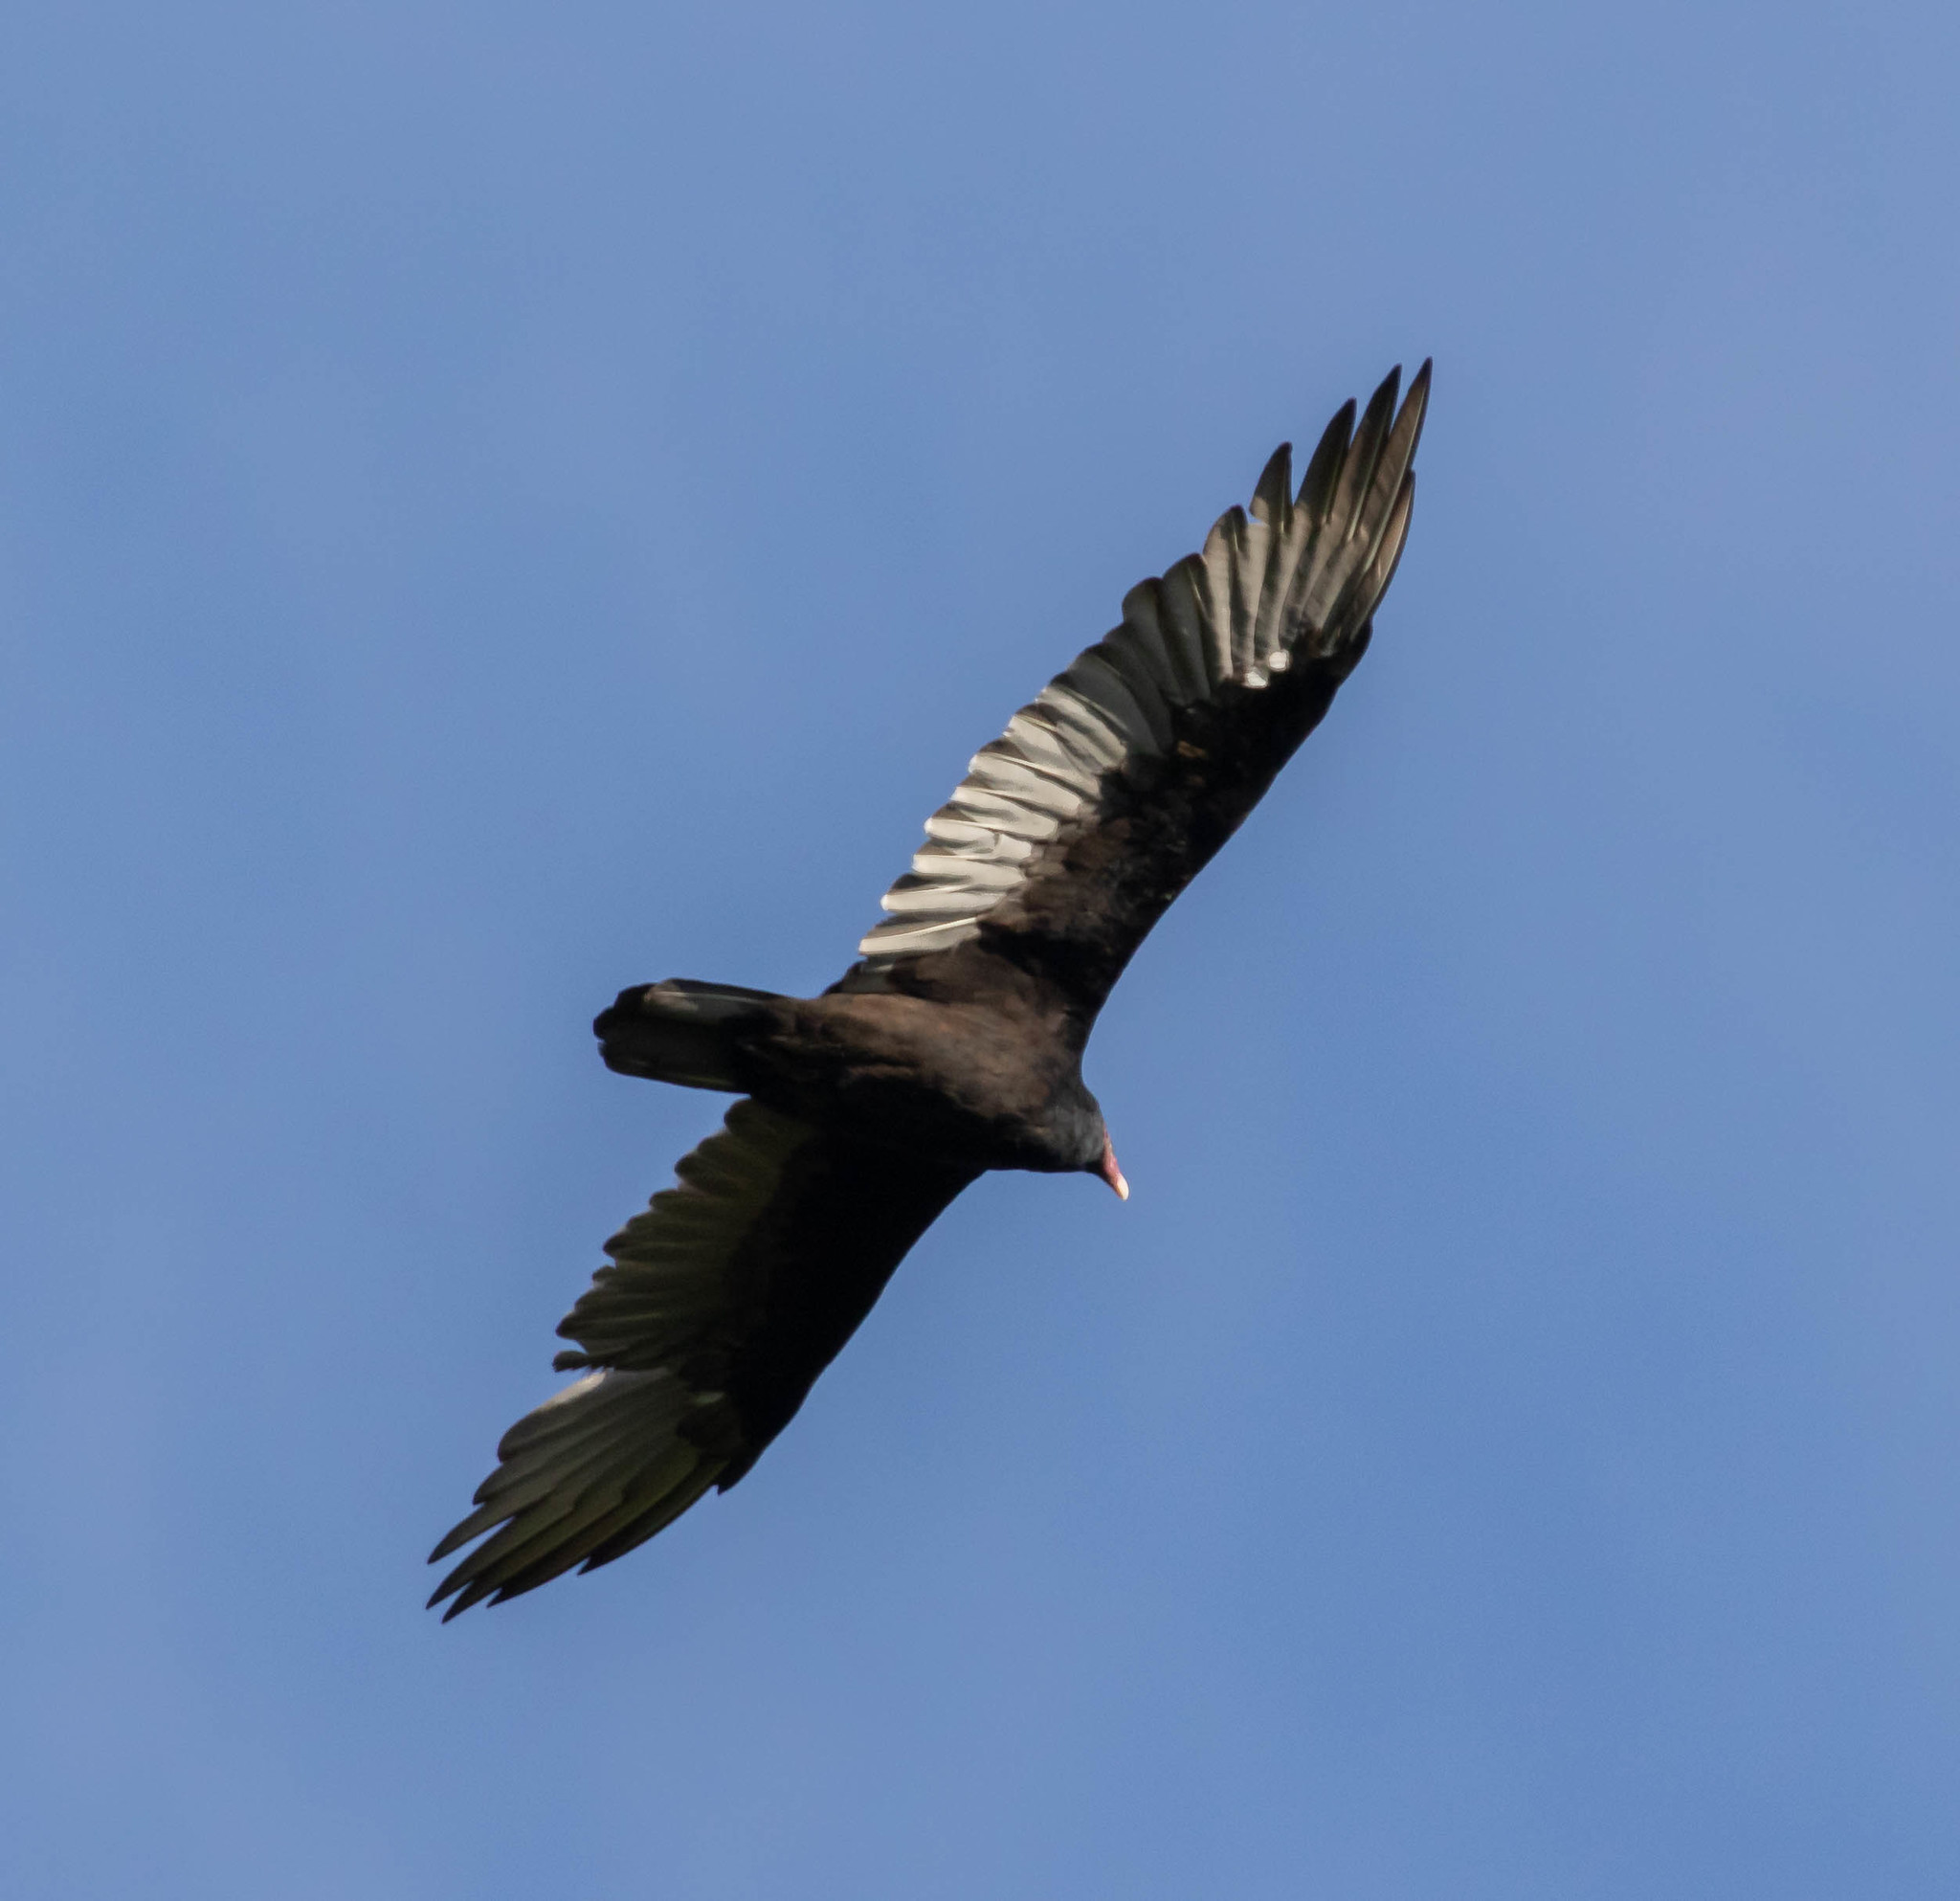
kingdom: Animalia
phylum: Chordata
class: Aves
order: Accipitriformes
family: Cathartidae
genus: Cathartes
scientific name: Cathartes aura
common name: Turkey vulture
